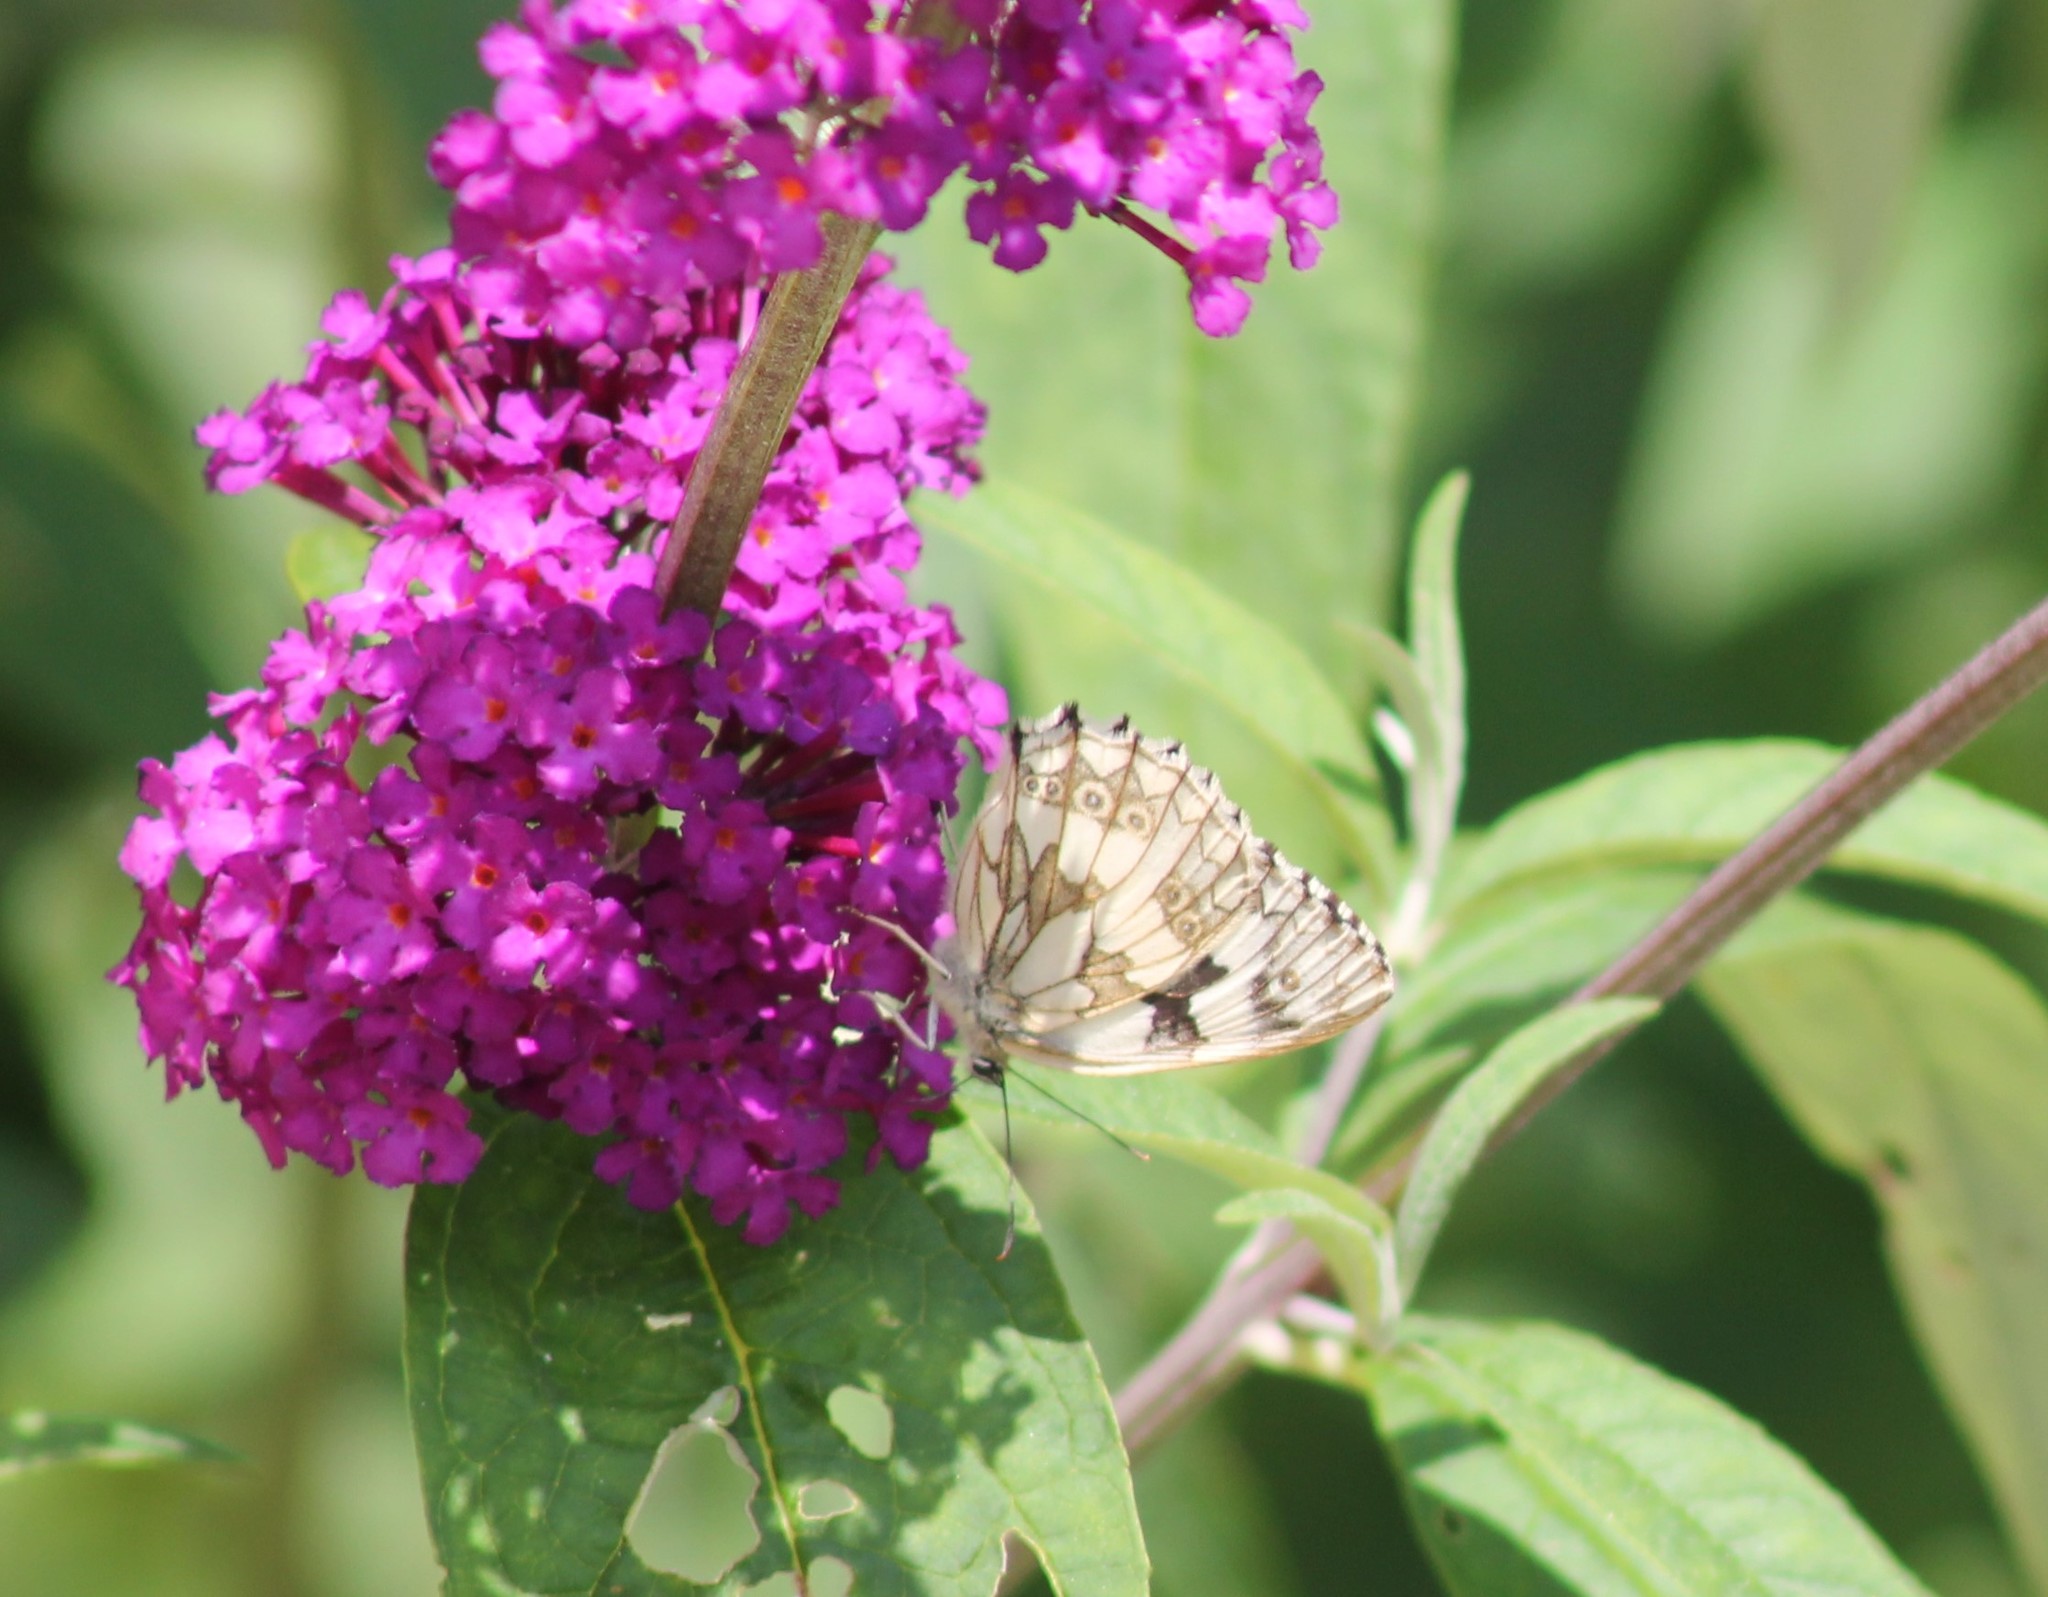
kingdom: Animalia
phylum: Arthropoda
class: Insecta
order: Lepidoptera
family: Nymphalidae
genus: Melanargia
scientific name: Melanargia galathea
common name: Marbled white
